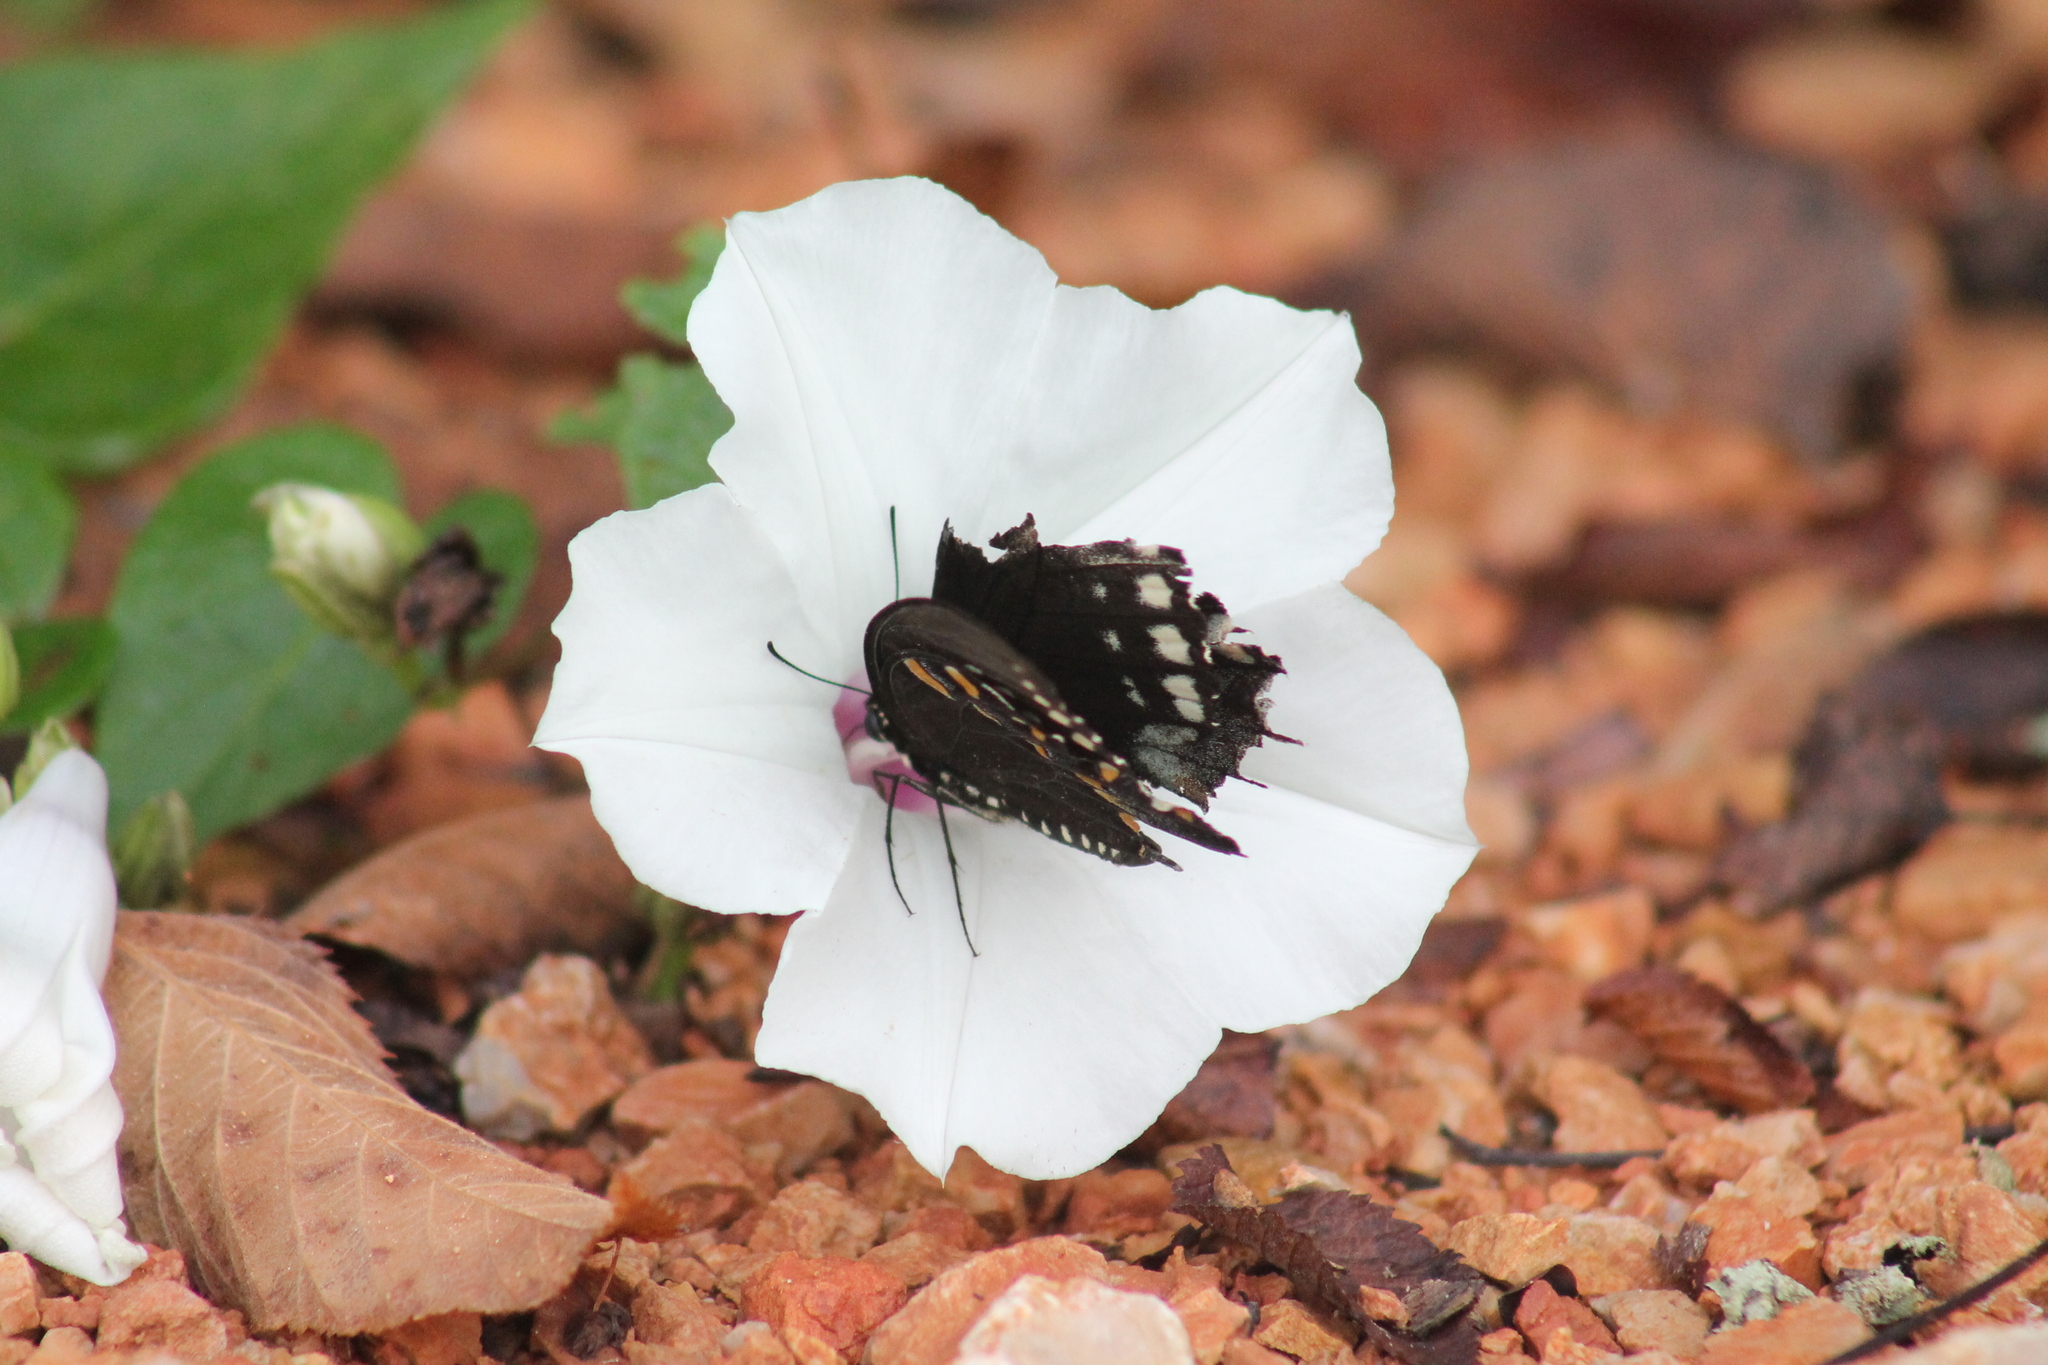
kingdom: Animalia
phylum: Arthropoda
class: Insecta
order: Lepidoptera
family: Papilionidae
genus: Papilio
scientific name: Papilio troilus
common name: Spicebush swallowtail
